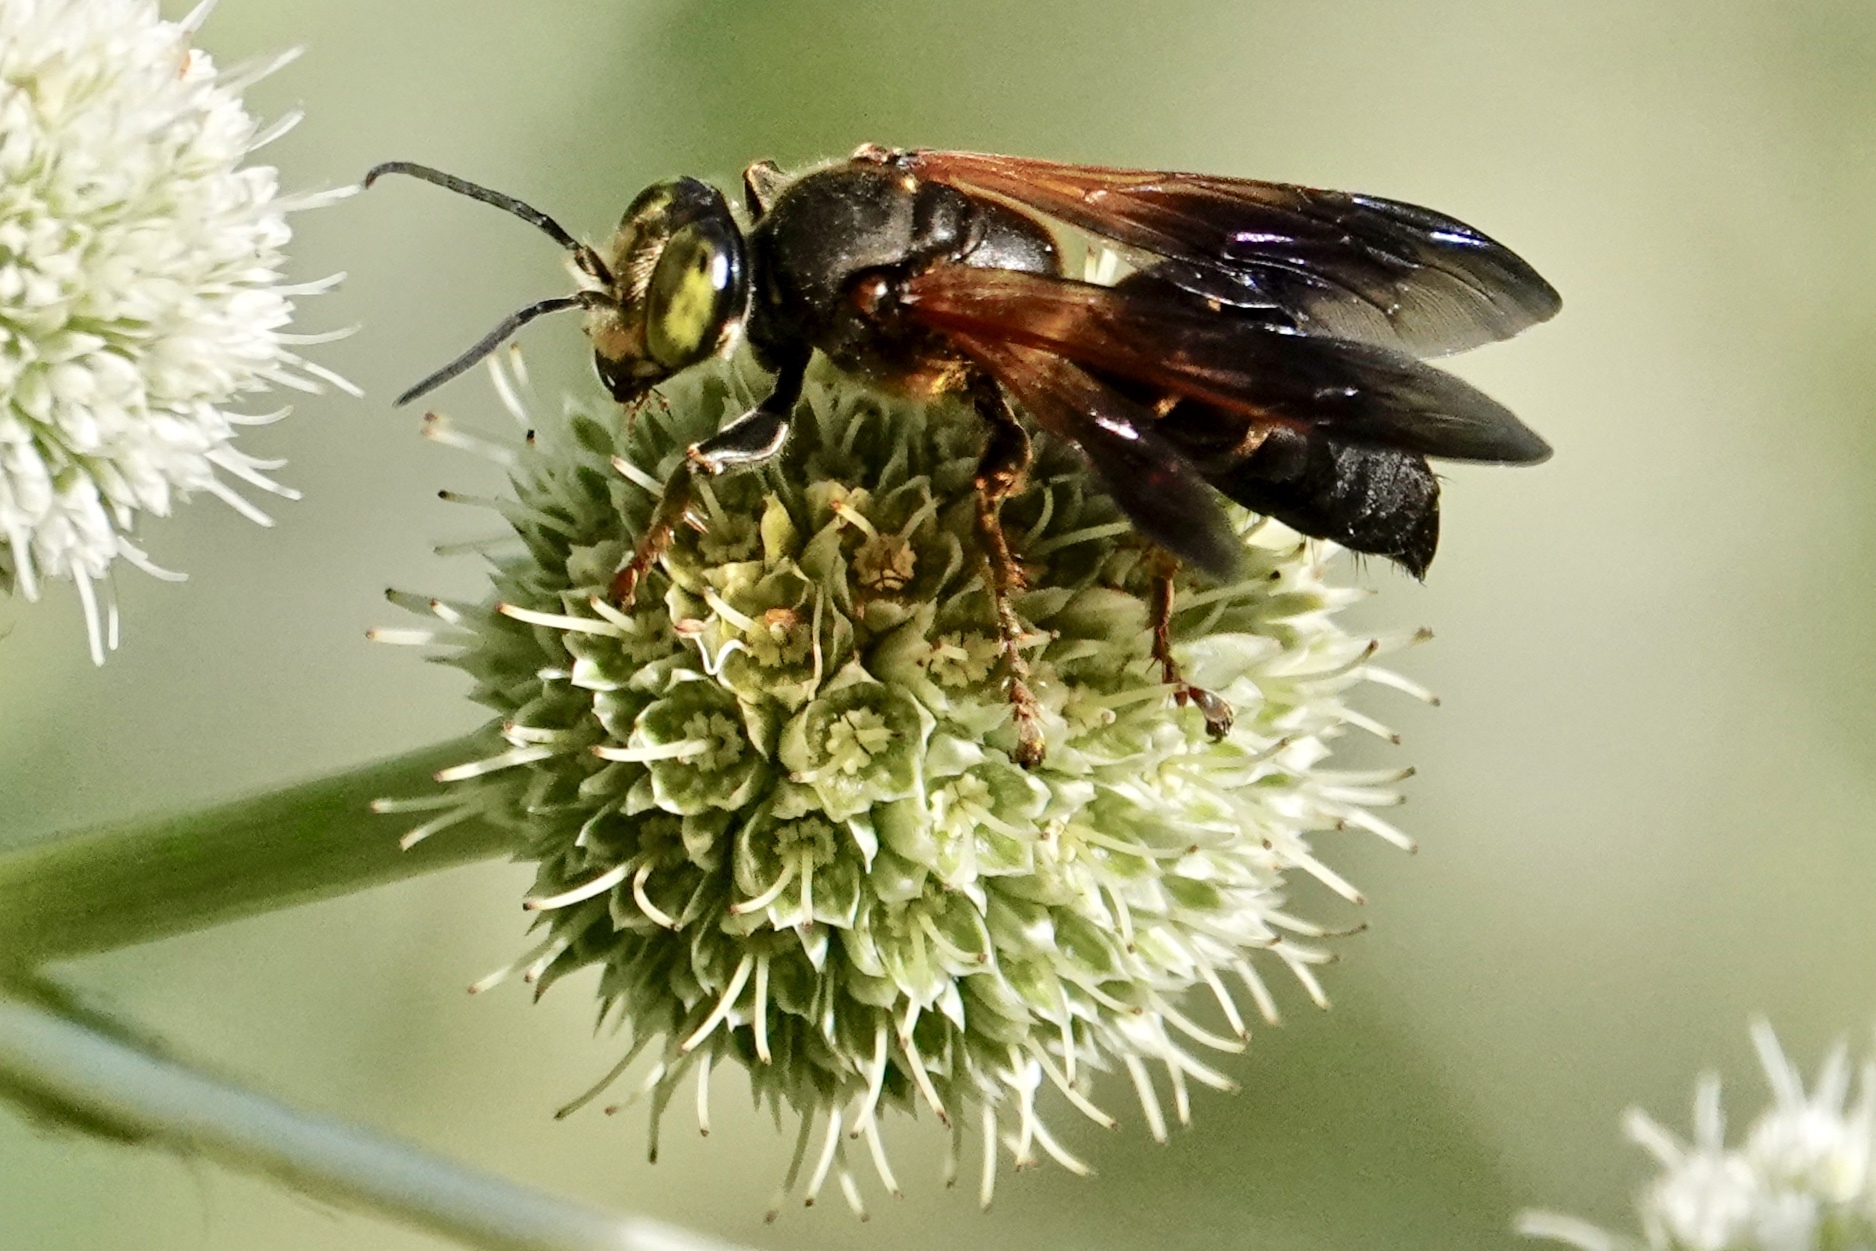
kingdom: Animalia
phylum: Arthropoda
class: Insecta
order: Hymenoptera
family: Crabronidae
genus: Tachytes
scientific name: Tachytes guatemalensis
